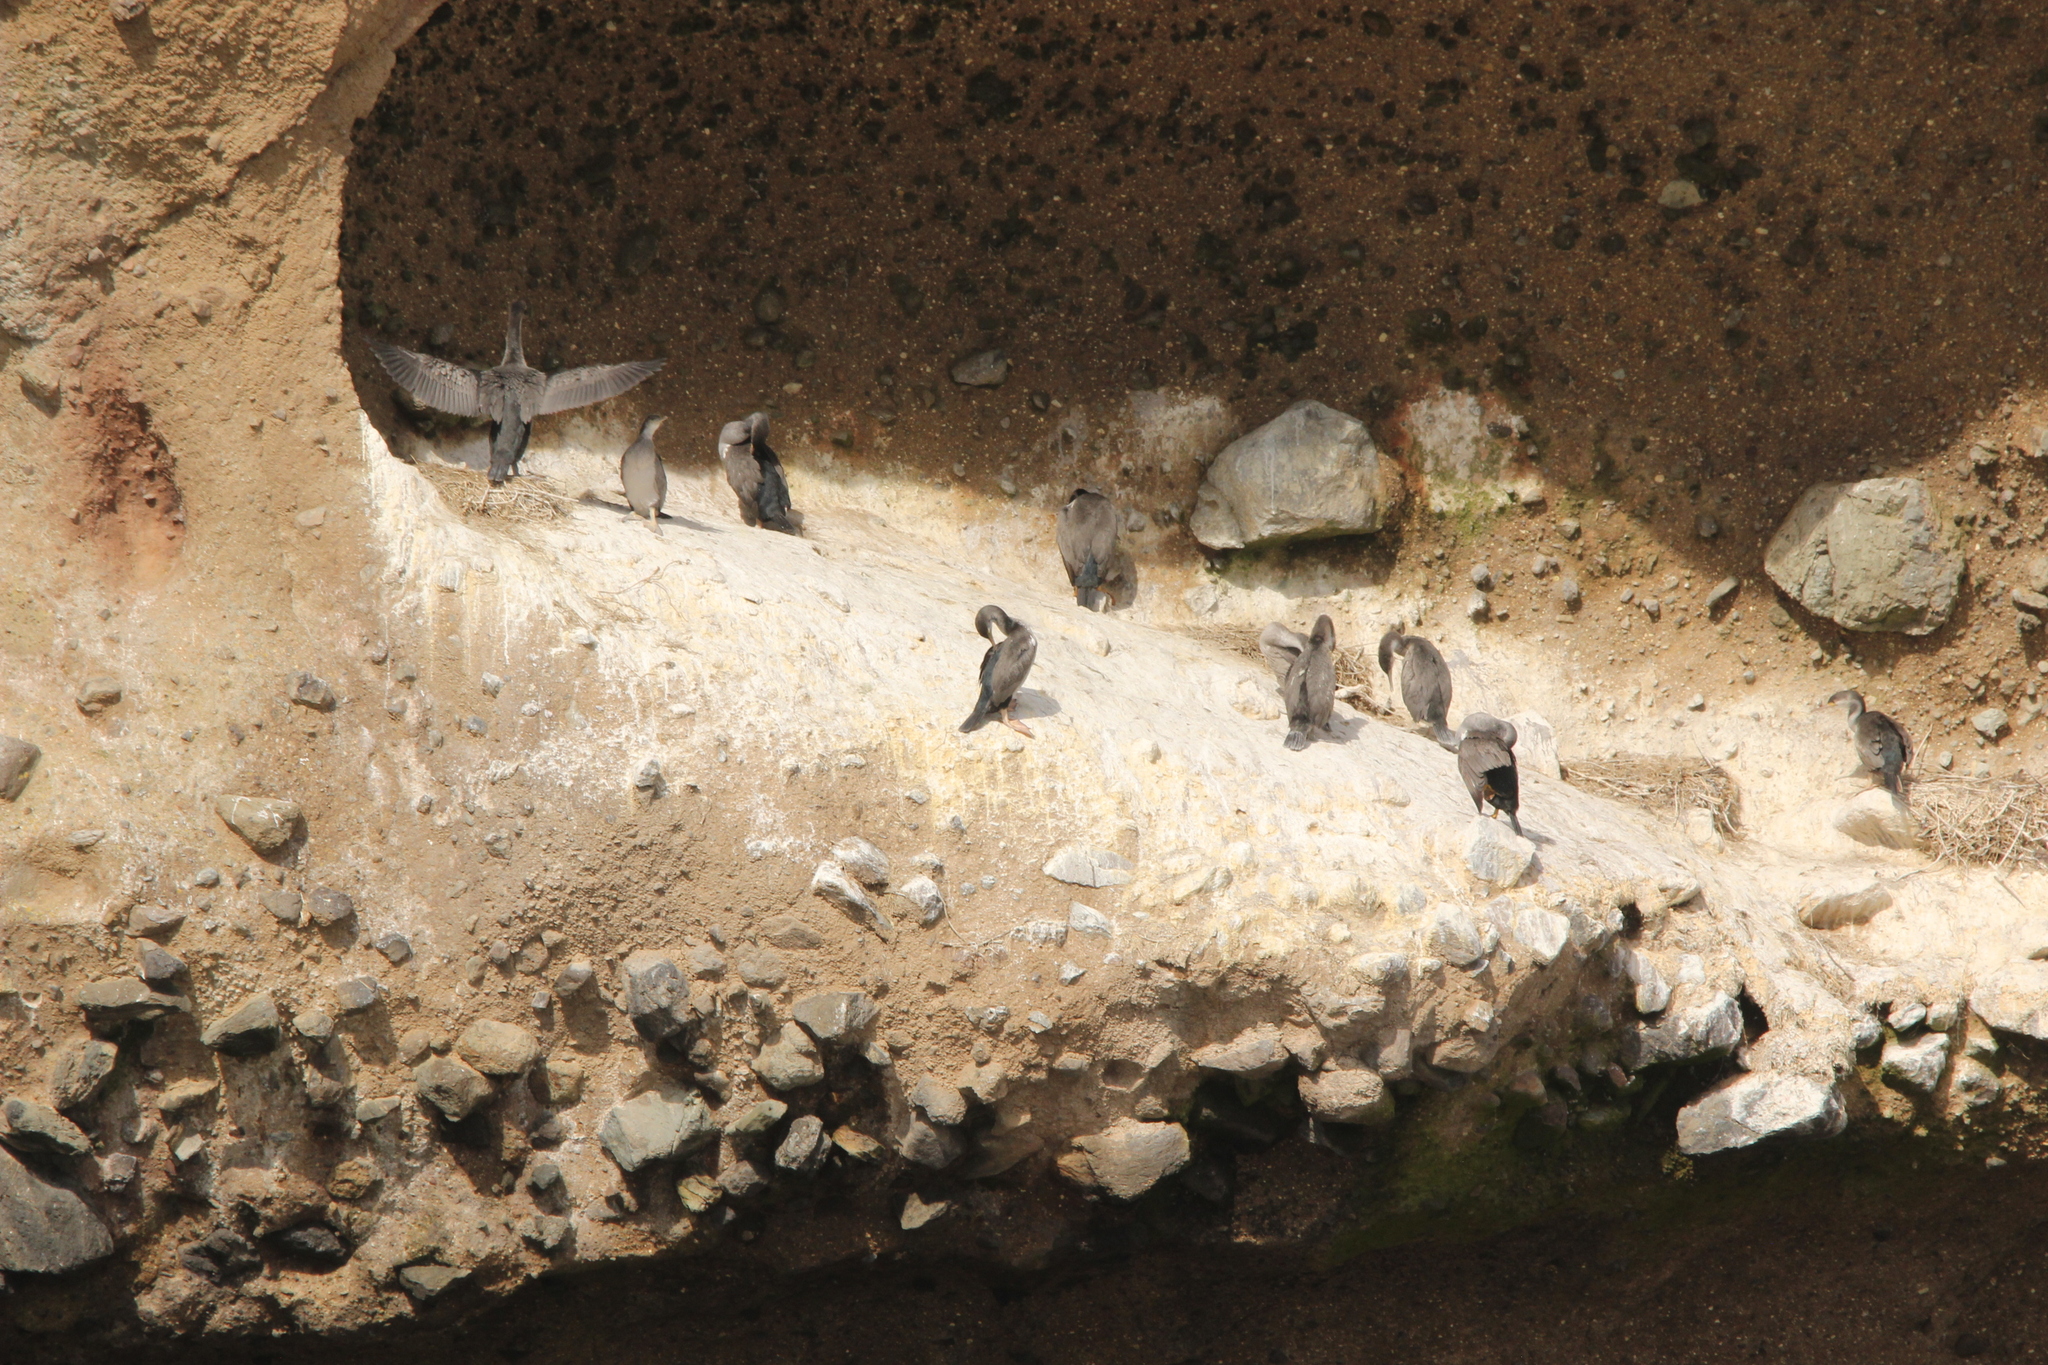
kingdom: Animalia
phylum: Chordata
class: Aves
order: Suliformes
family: Phalacrocoracidae
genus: Phalacrocorax
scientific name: Phalacrocorax punctatus
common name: Spotted shag
